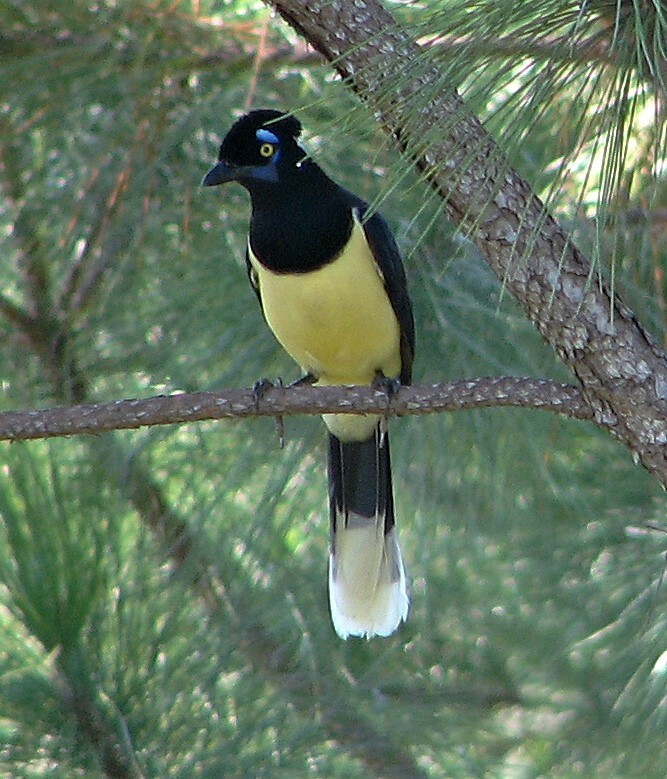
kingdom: Animalia
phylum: Chordata
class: Aves
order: Passeriformes
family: Corvidae
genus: Cyanocorax
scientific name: Cyanocorax chrysops
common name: Plush-crested jay
